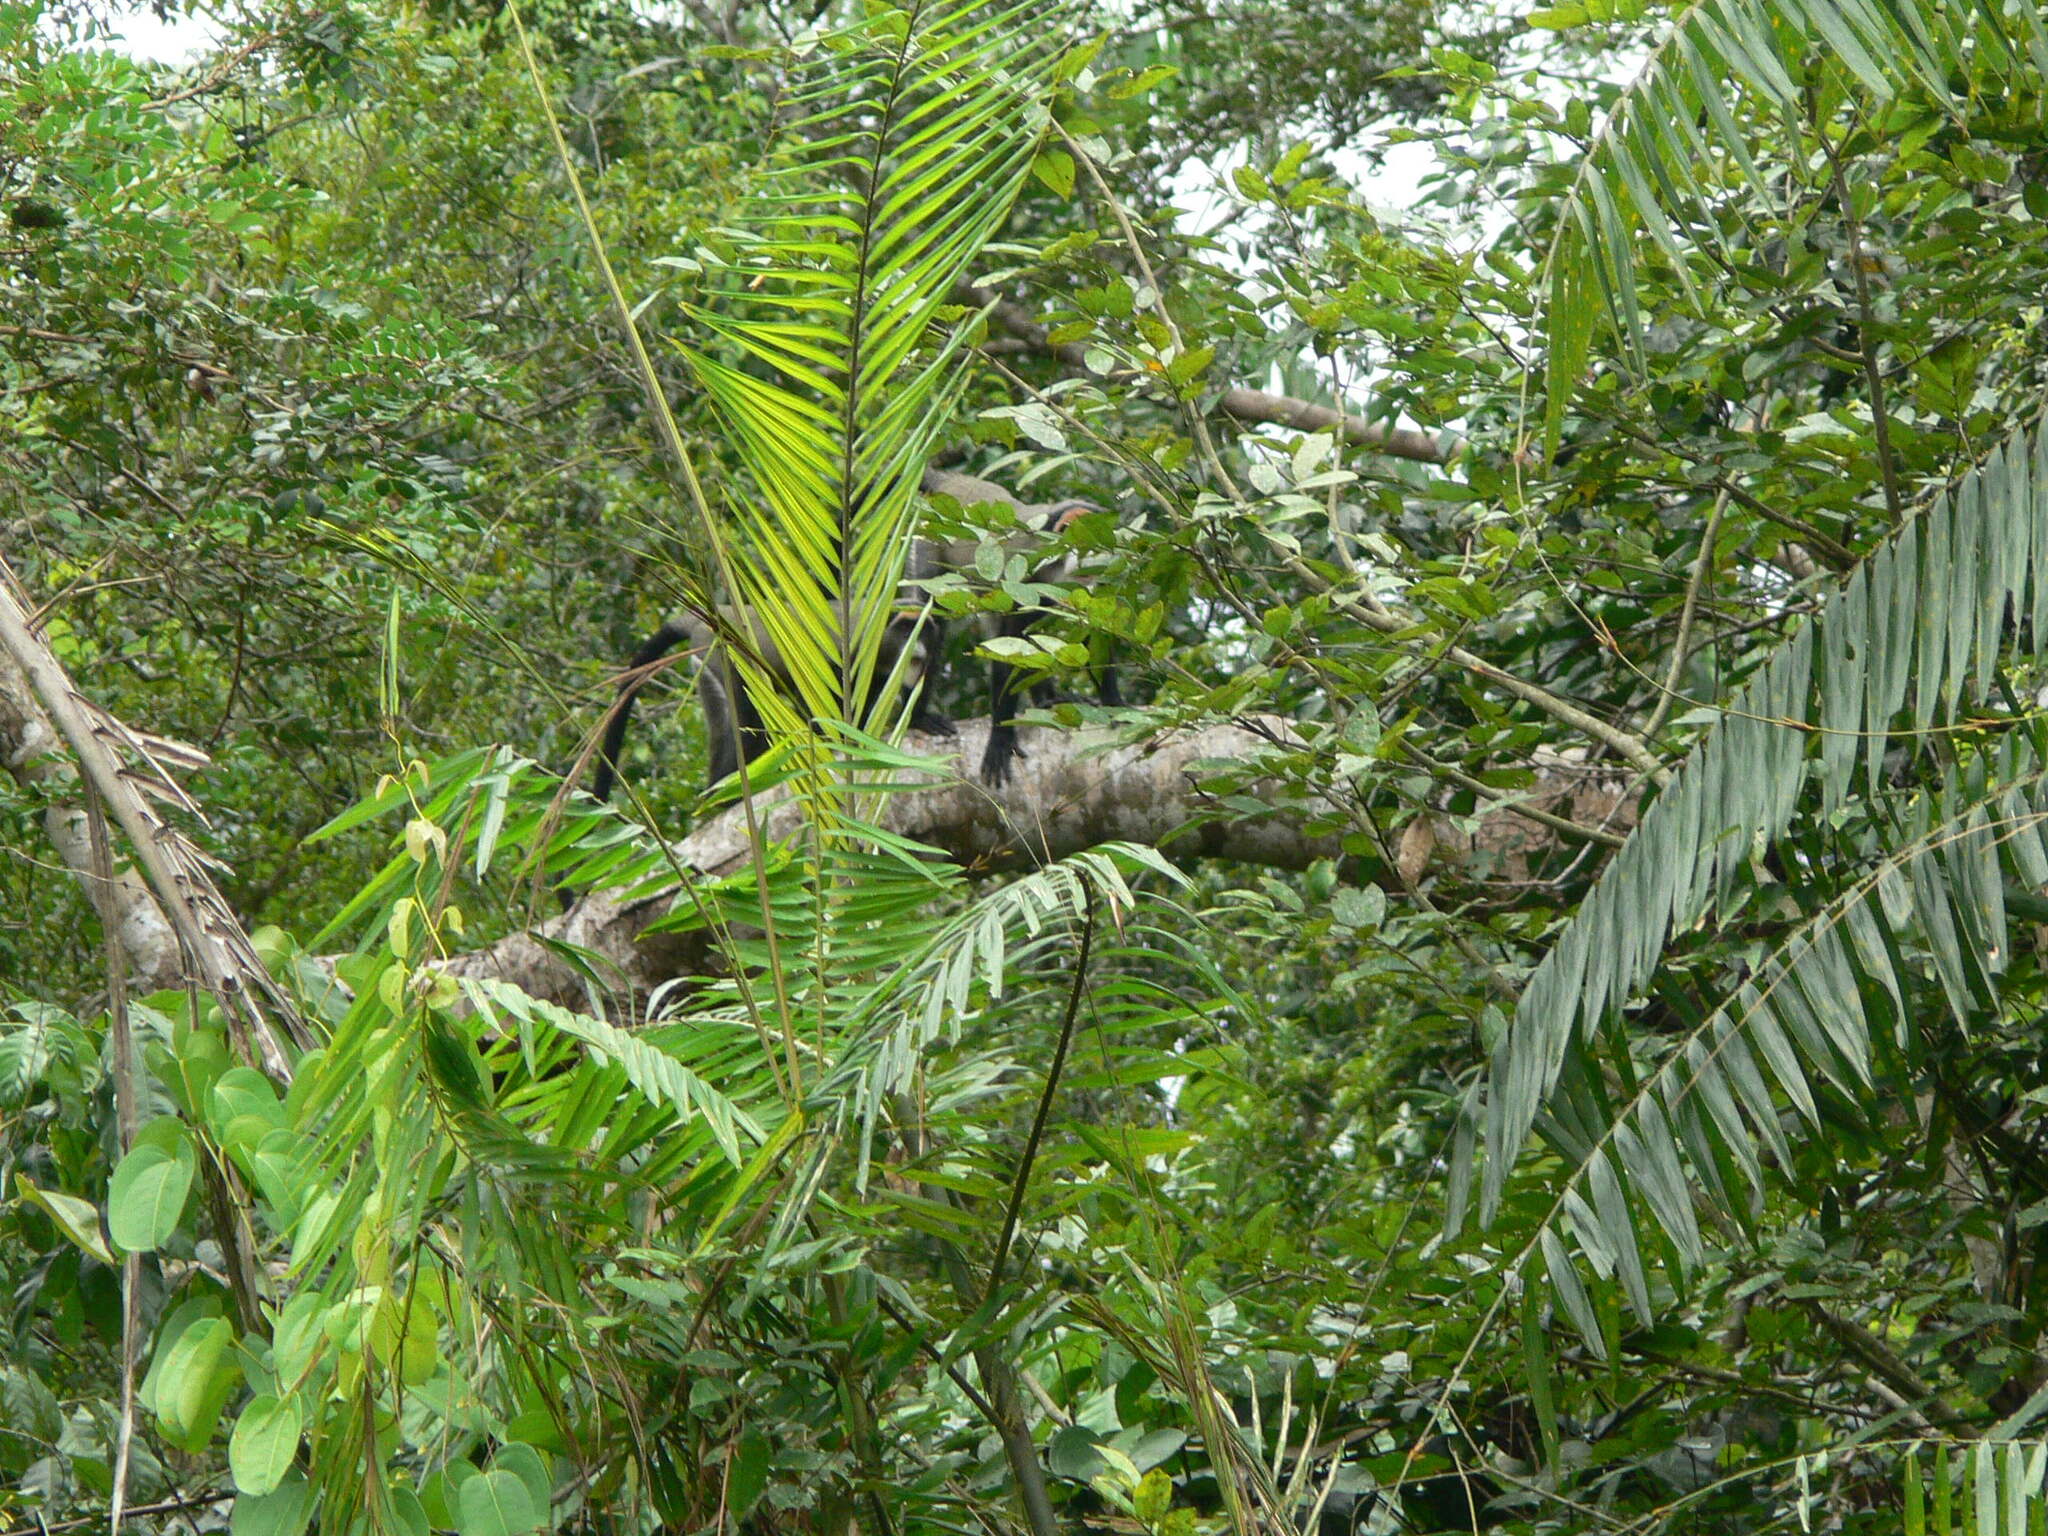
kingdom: Animalia
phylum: Chordata
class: Mammalia
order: Primates
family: Cercopithecidae
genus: Cercopithecus
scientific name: Cercopithecus neglectus
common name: De brazza's guenon
